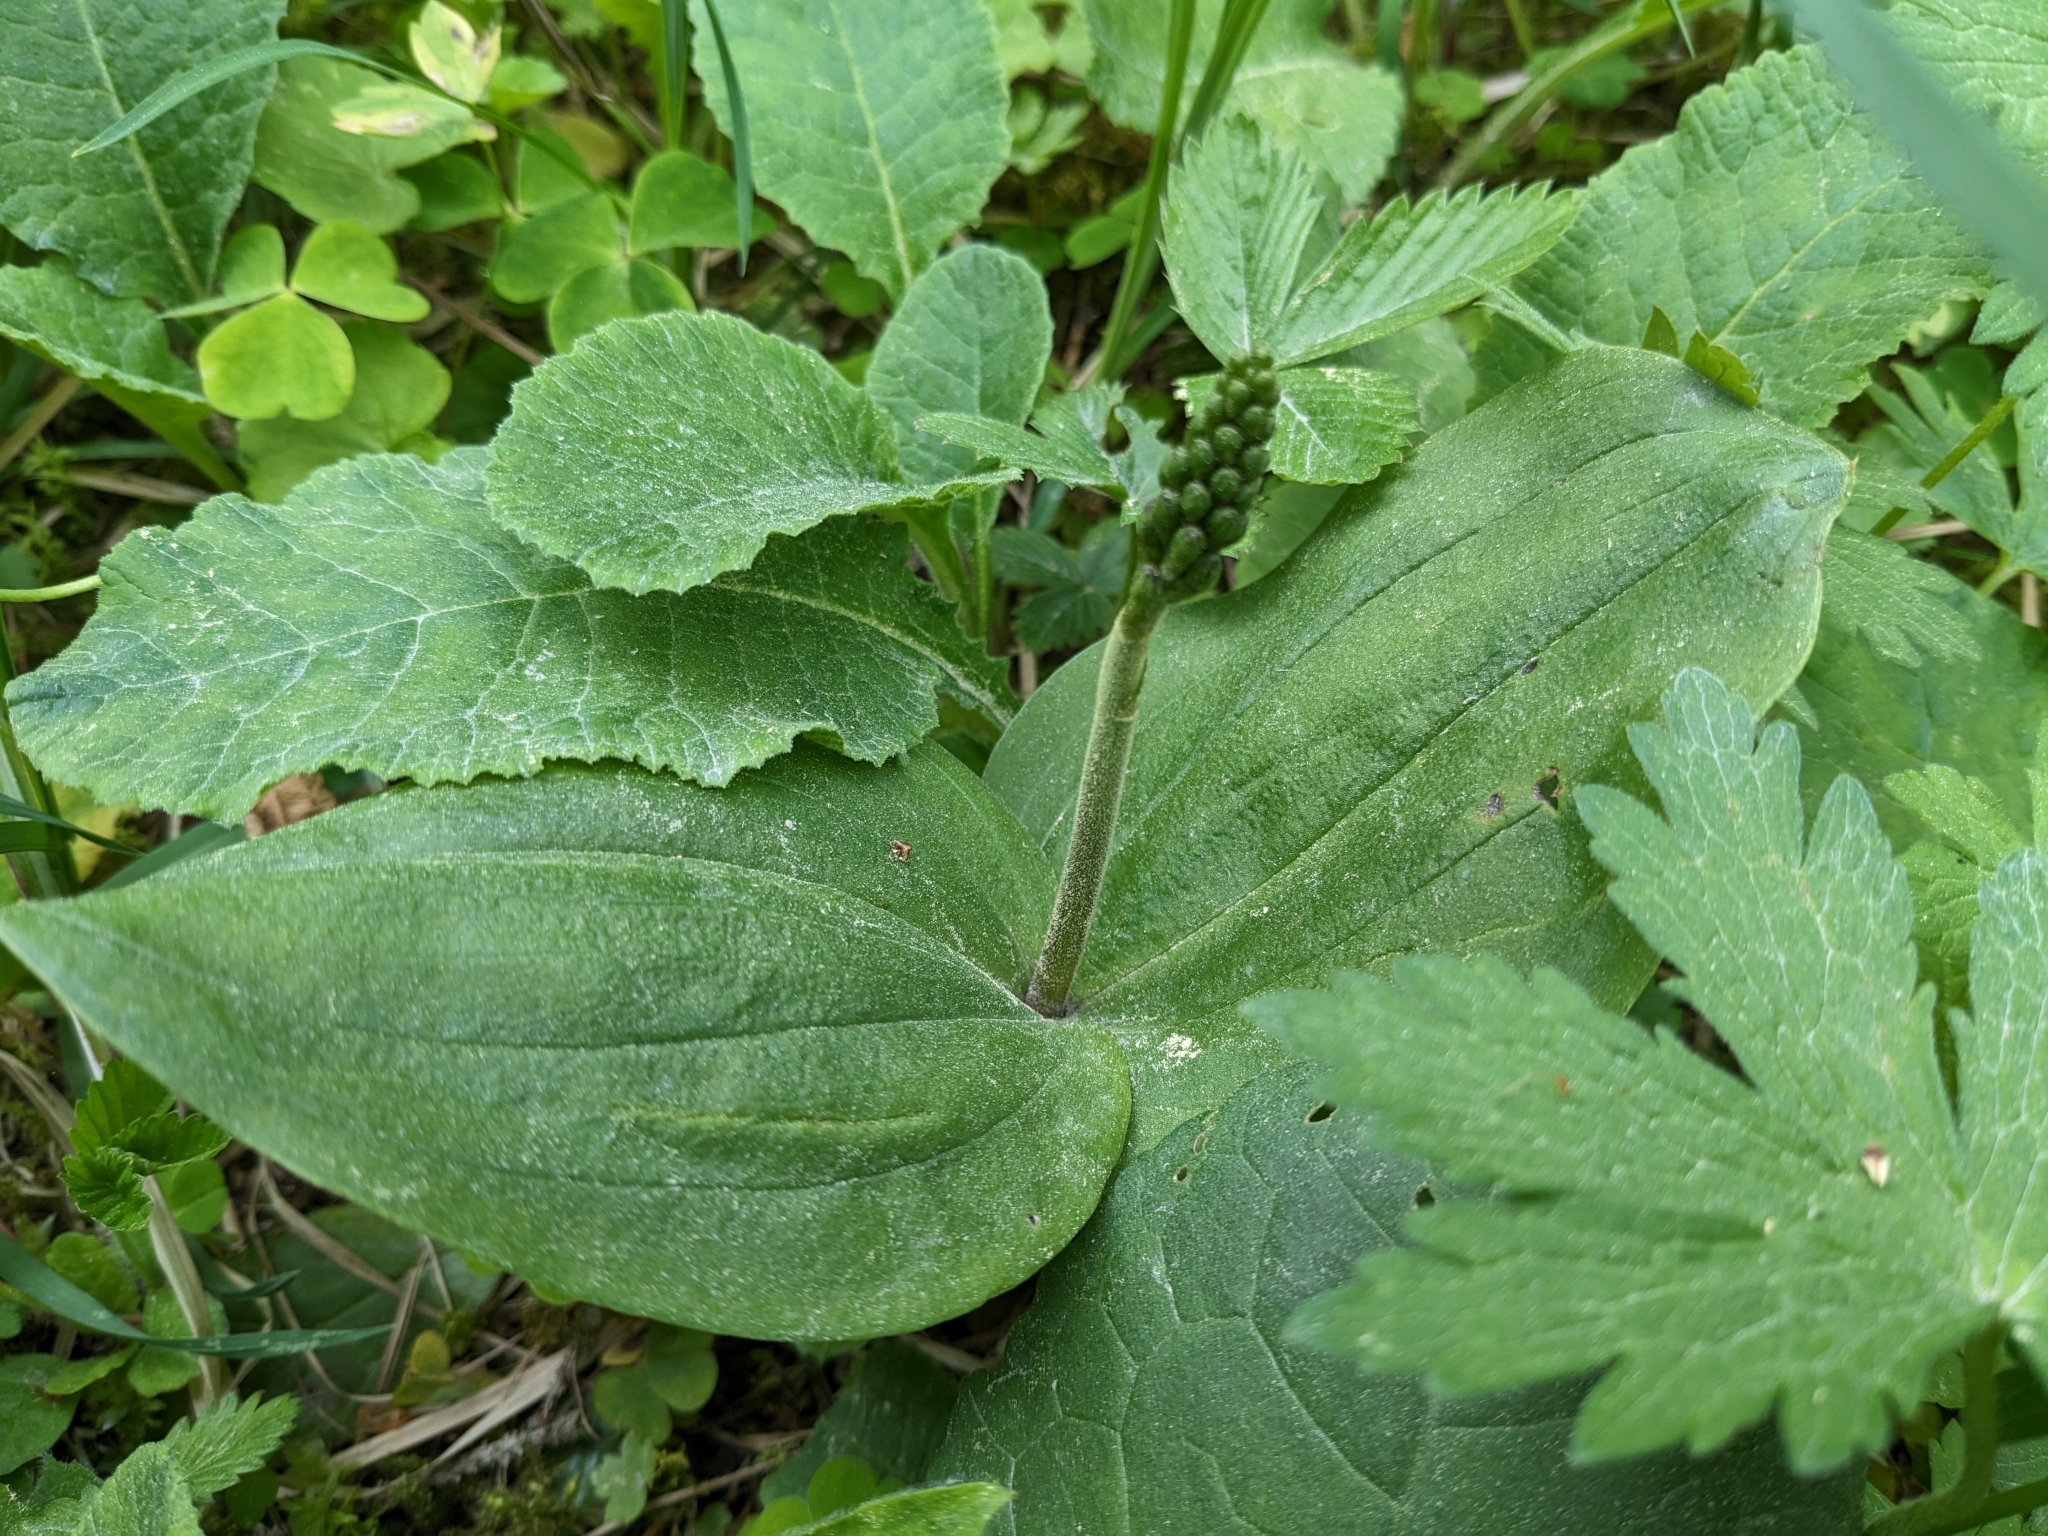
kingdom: Plantae
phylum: Tracheophyta
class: Liliopsida
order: Asparagales
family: Orchidaceae
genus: Neottia
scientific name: Neottia ovata
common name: Common twayblade
